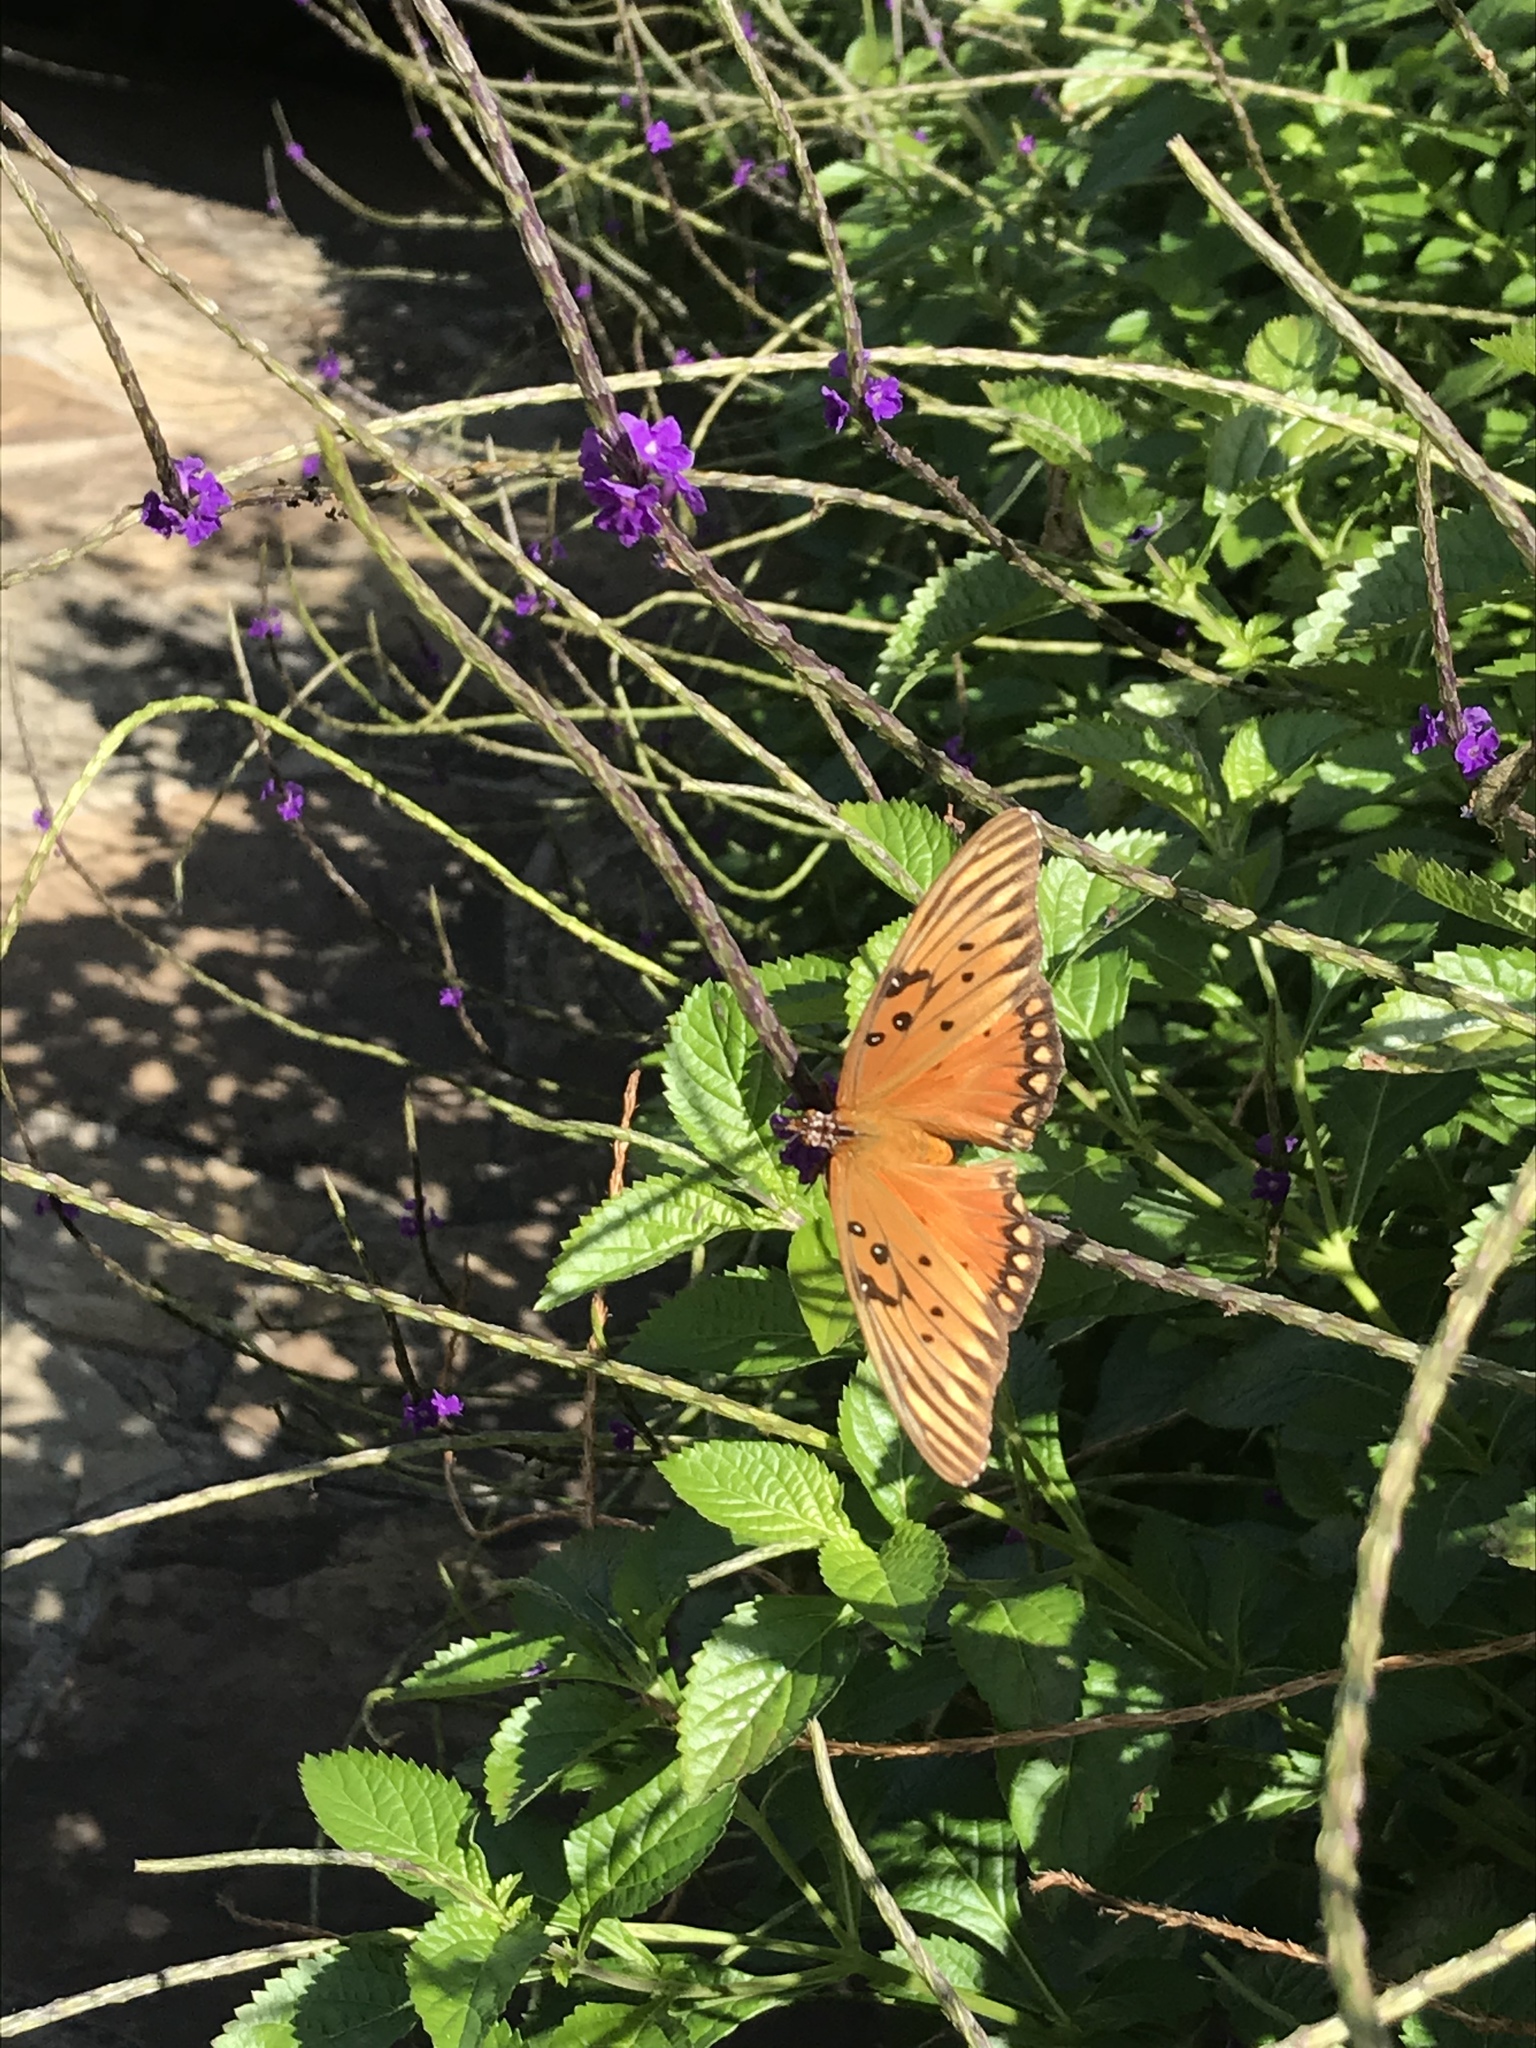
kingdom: Animalia
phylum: Arthropoda
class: Insecta
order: Lepidoptera
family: Nymphalidae
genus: Dione
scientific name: Dione vanillae
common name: Gulf fritillary
